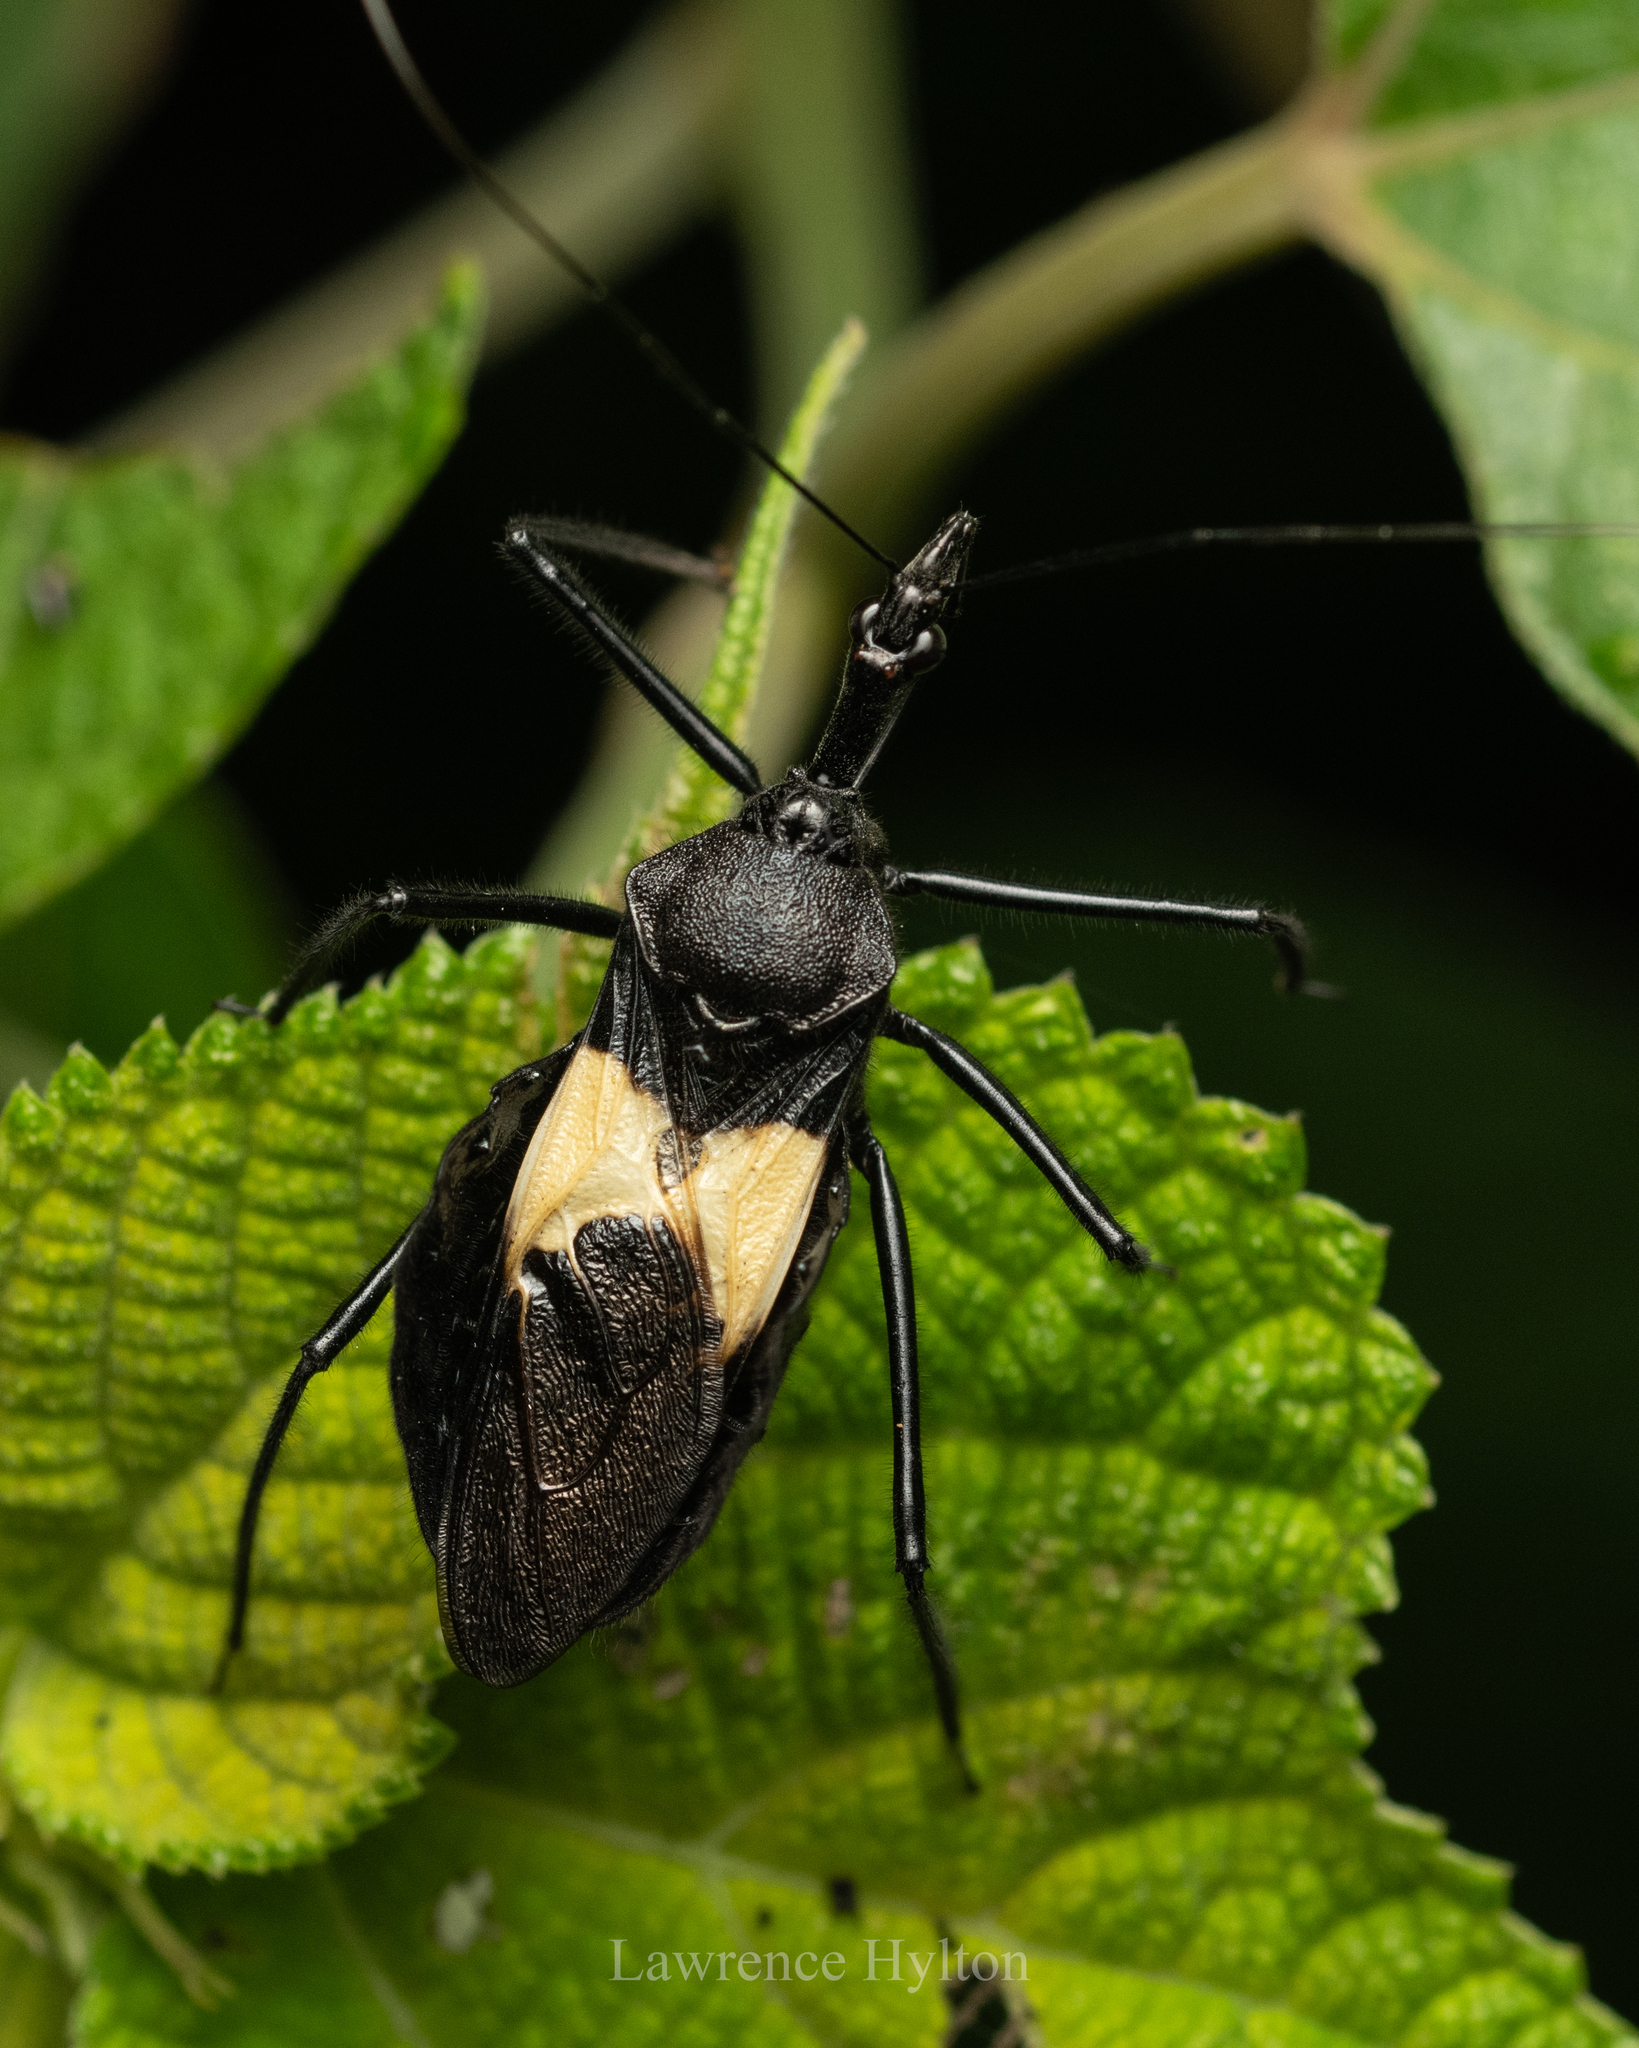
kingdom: Animalia
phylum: Arthropoda
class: Insecta
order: Hemiptera
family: Reduviidae
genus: Sycanus
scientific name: Sycanus croceovittatus
